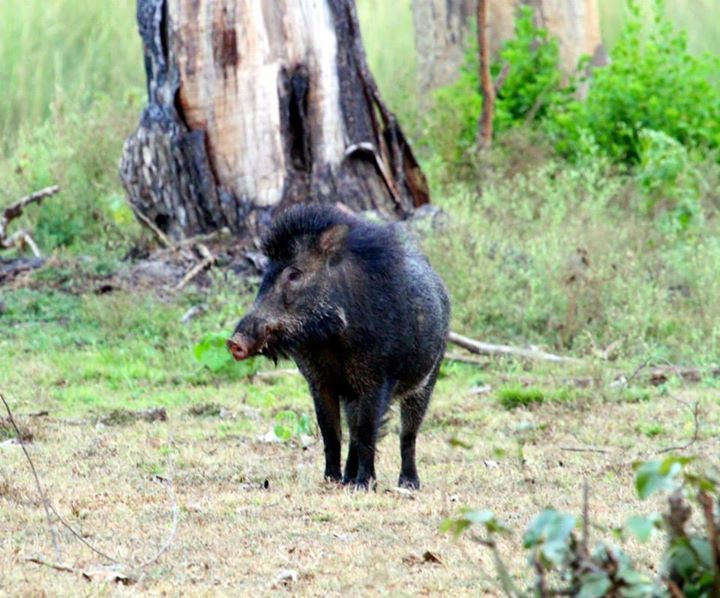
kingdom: Animalia
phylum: Chordata
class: Mammalia
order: Artiodactyla
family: Suidae
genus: Sus
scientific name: Sus scrofa
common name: Wild boar
